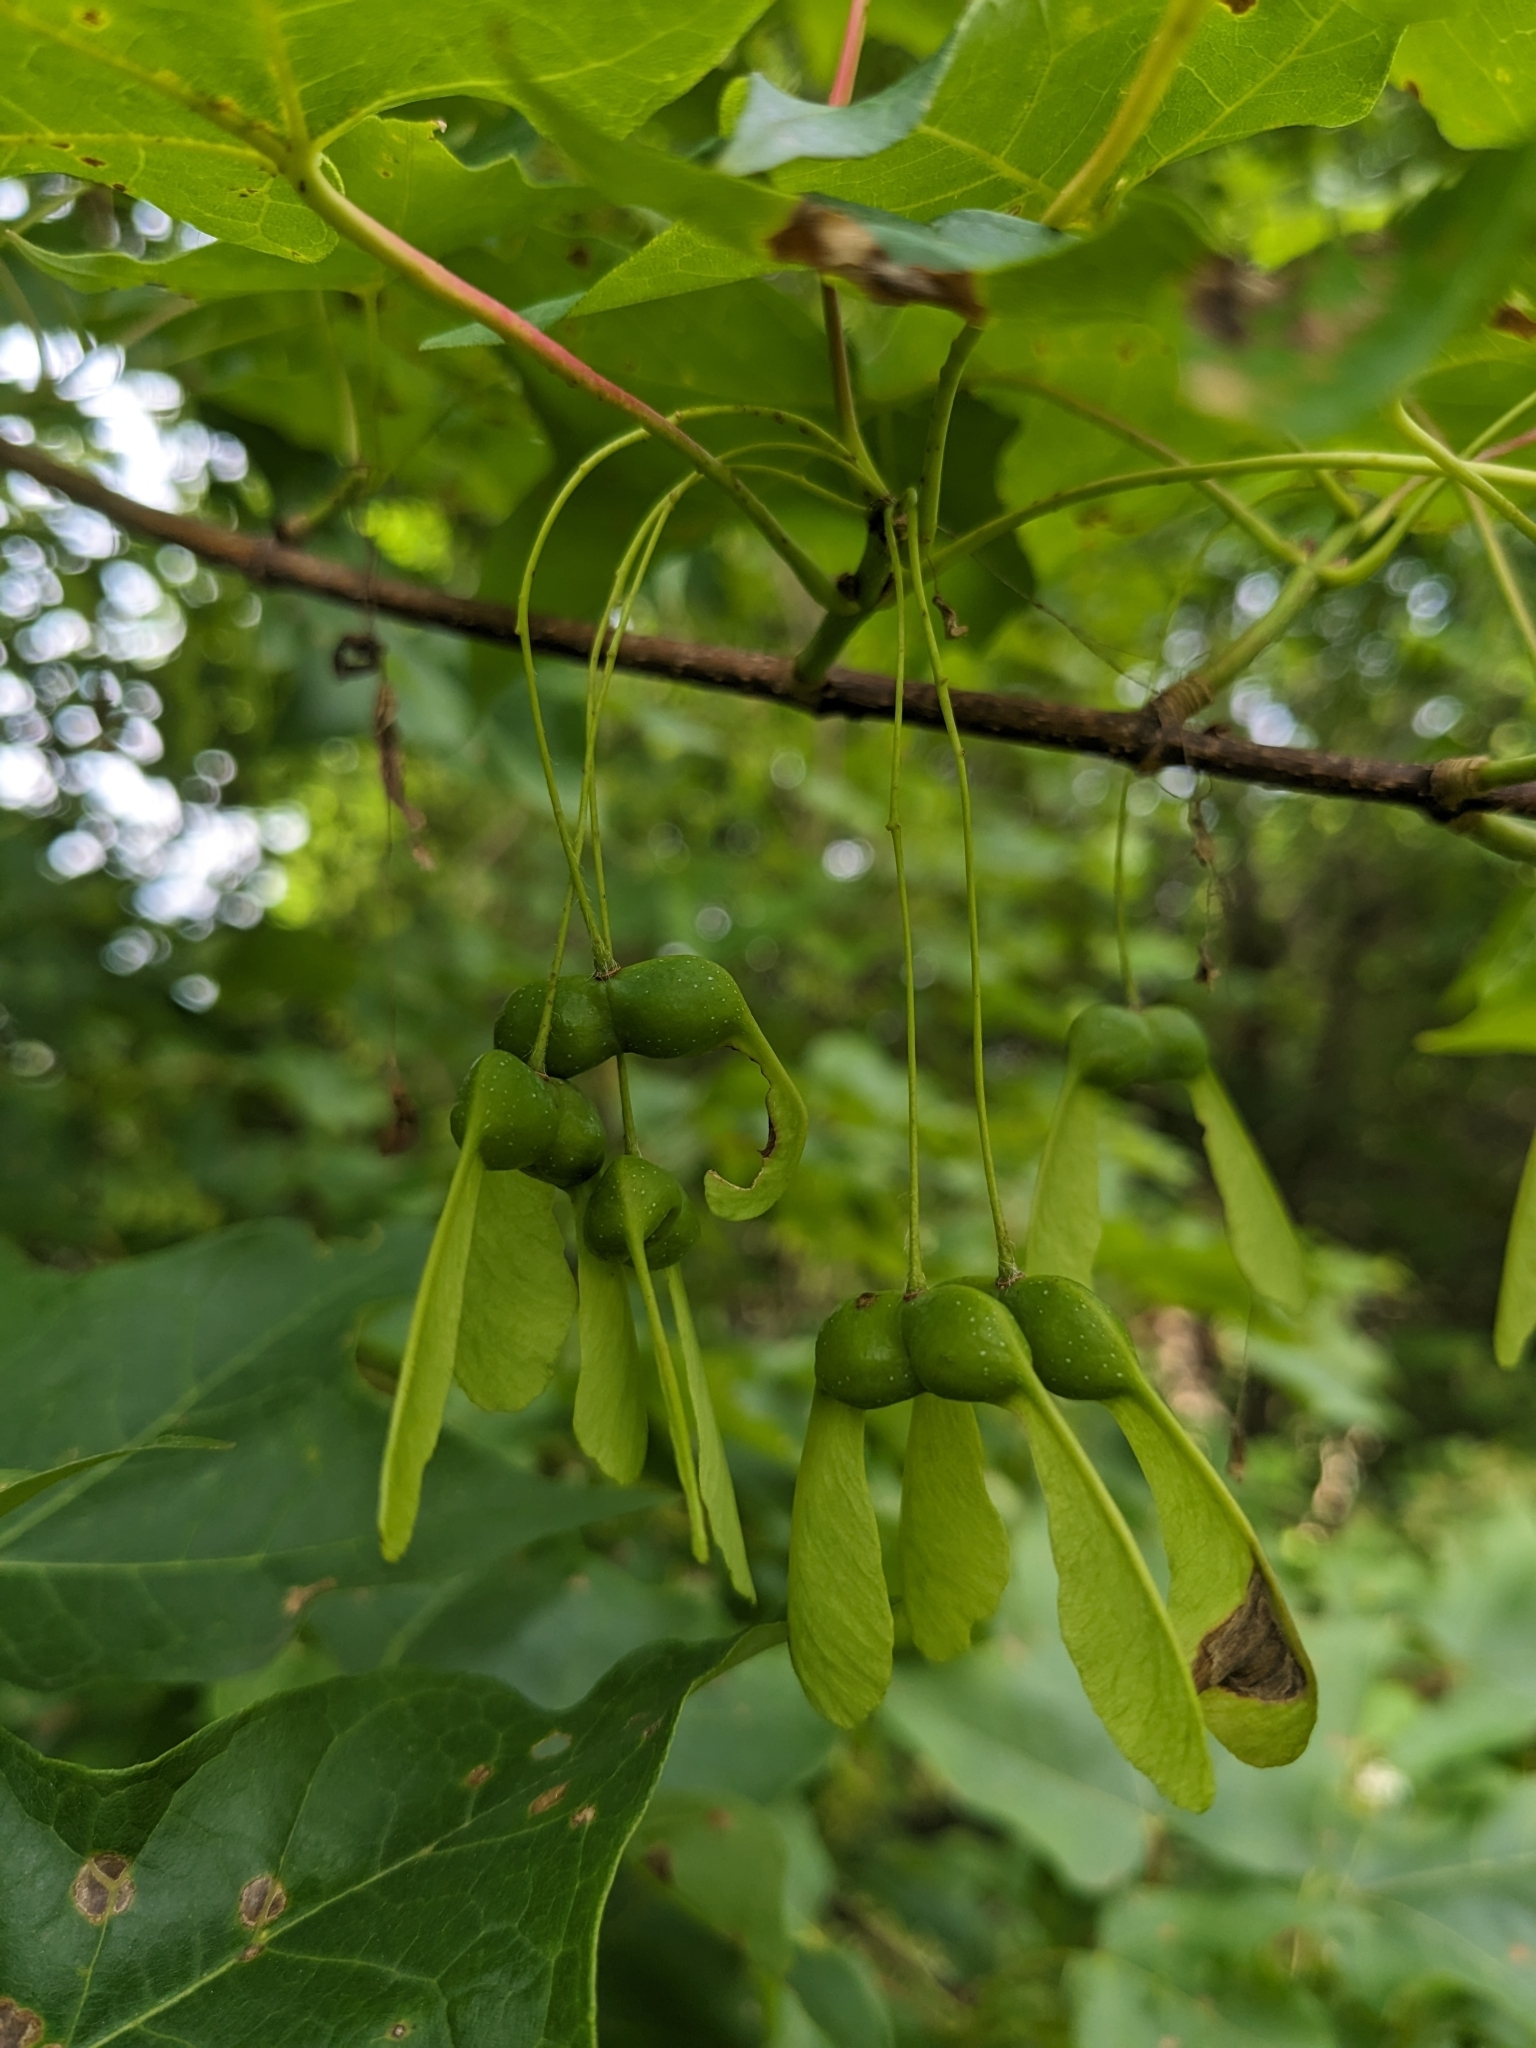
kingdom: Plantae
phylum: Tracheophyta
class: Magnoliopsida
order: Sapindales
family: Sapindaceae
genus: Acer
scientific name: Acer saccharum
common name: Sugar maple
